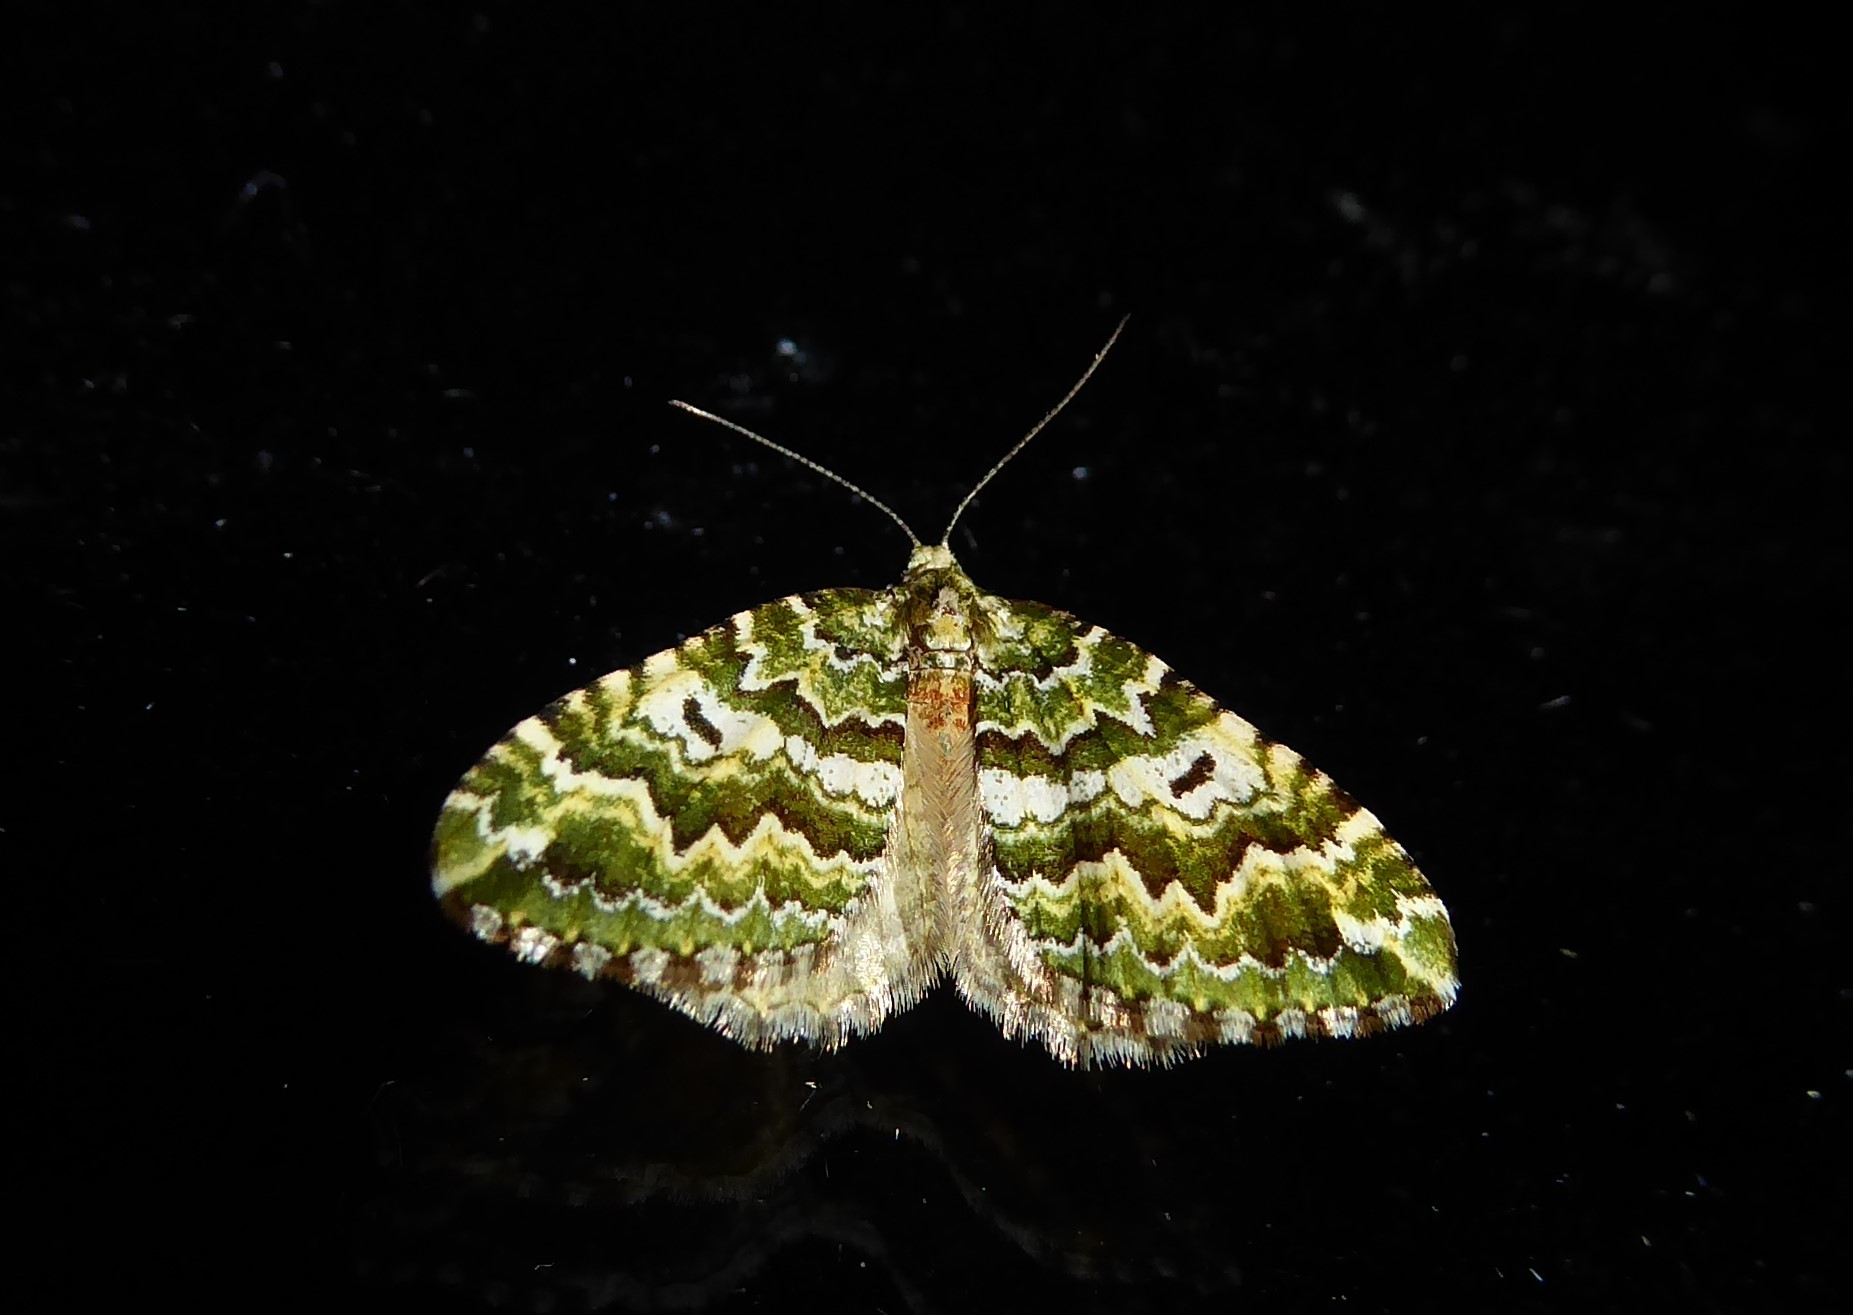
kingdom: Animalia
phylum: Arthropoda
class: Insecta
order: Lepidoptera
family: Geometridae
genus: Asaphodes
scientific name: Asaphodes beata
